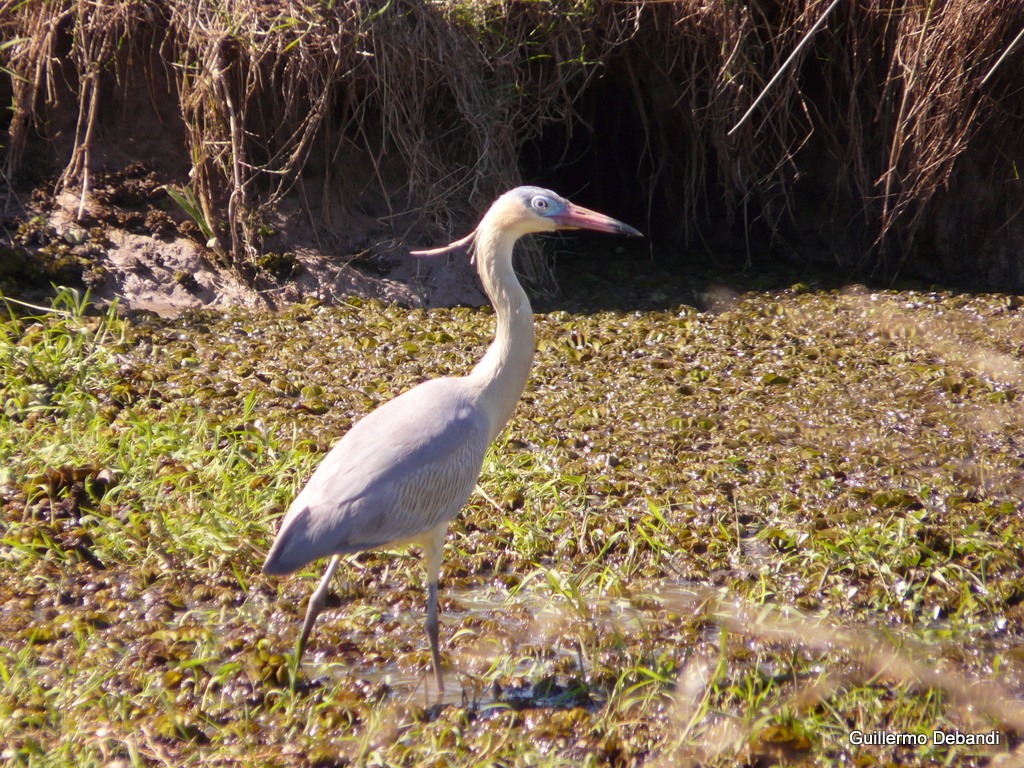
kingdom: Animalia
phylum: Chordata
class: Aves
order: Pelecaniformes
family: Ardeidae
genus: Syrigma
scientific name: Syrigma sibilatrix
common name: Whistling heron
